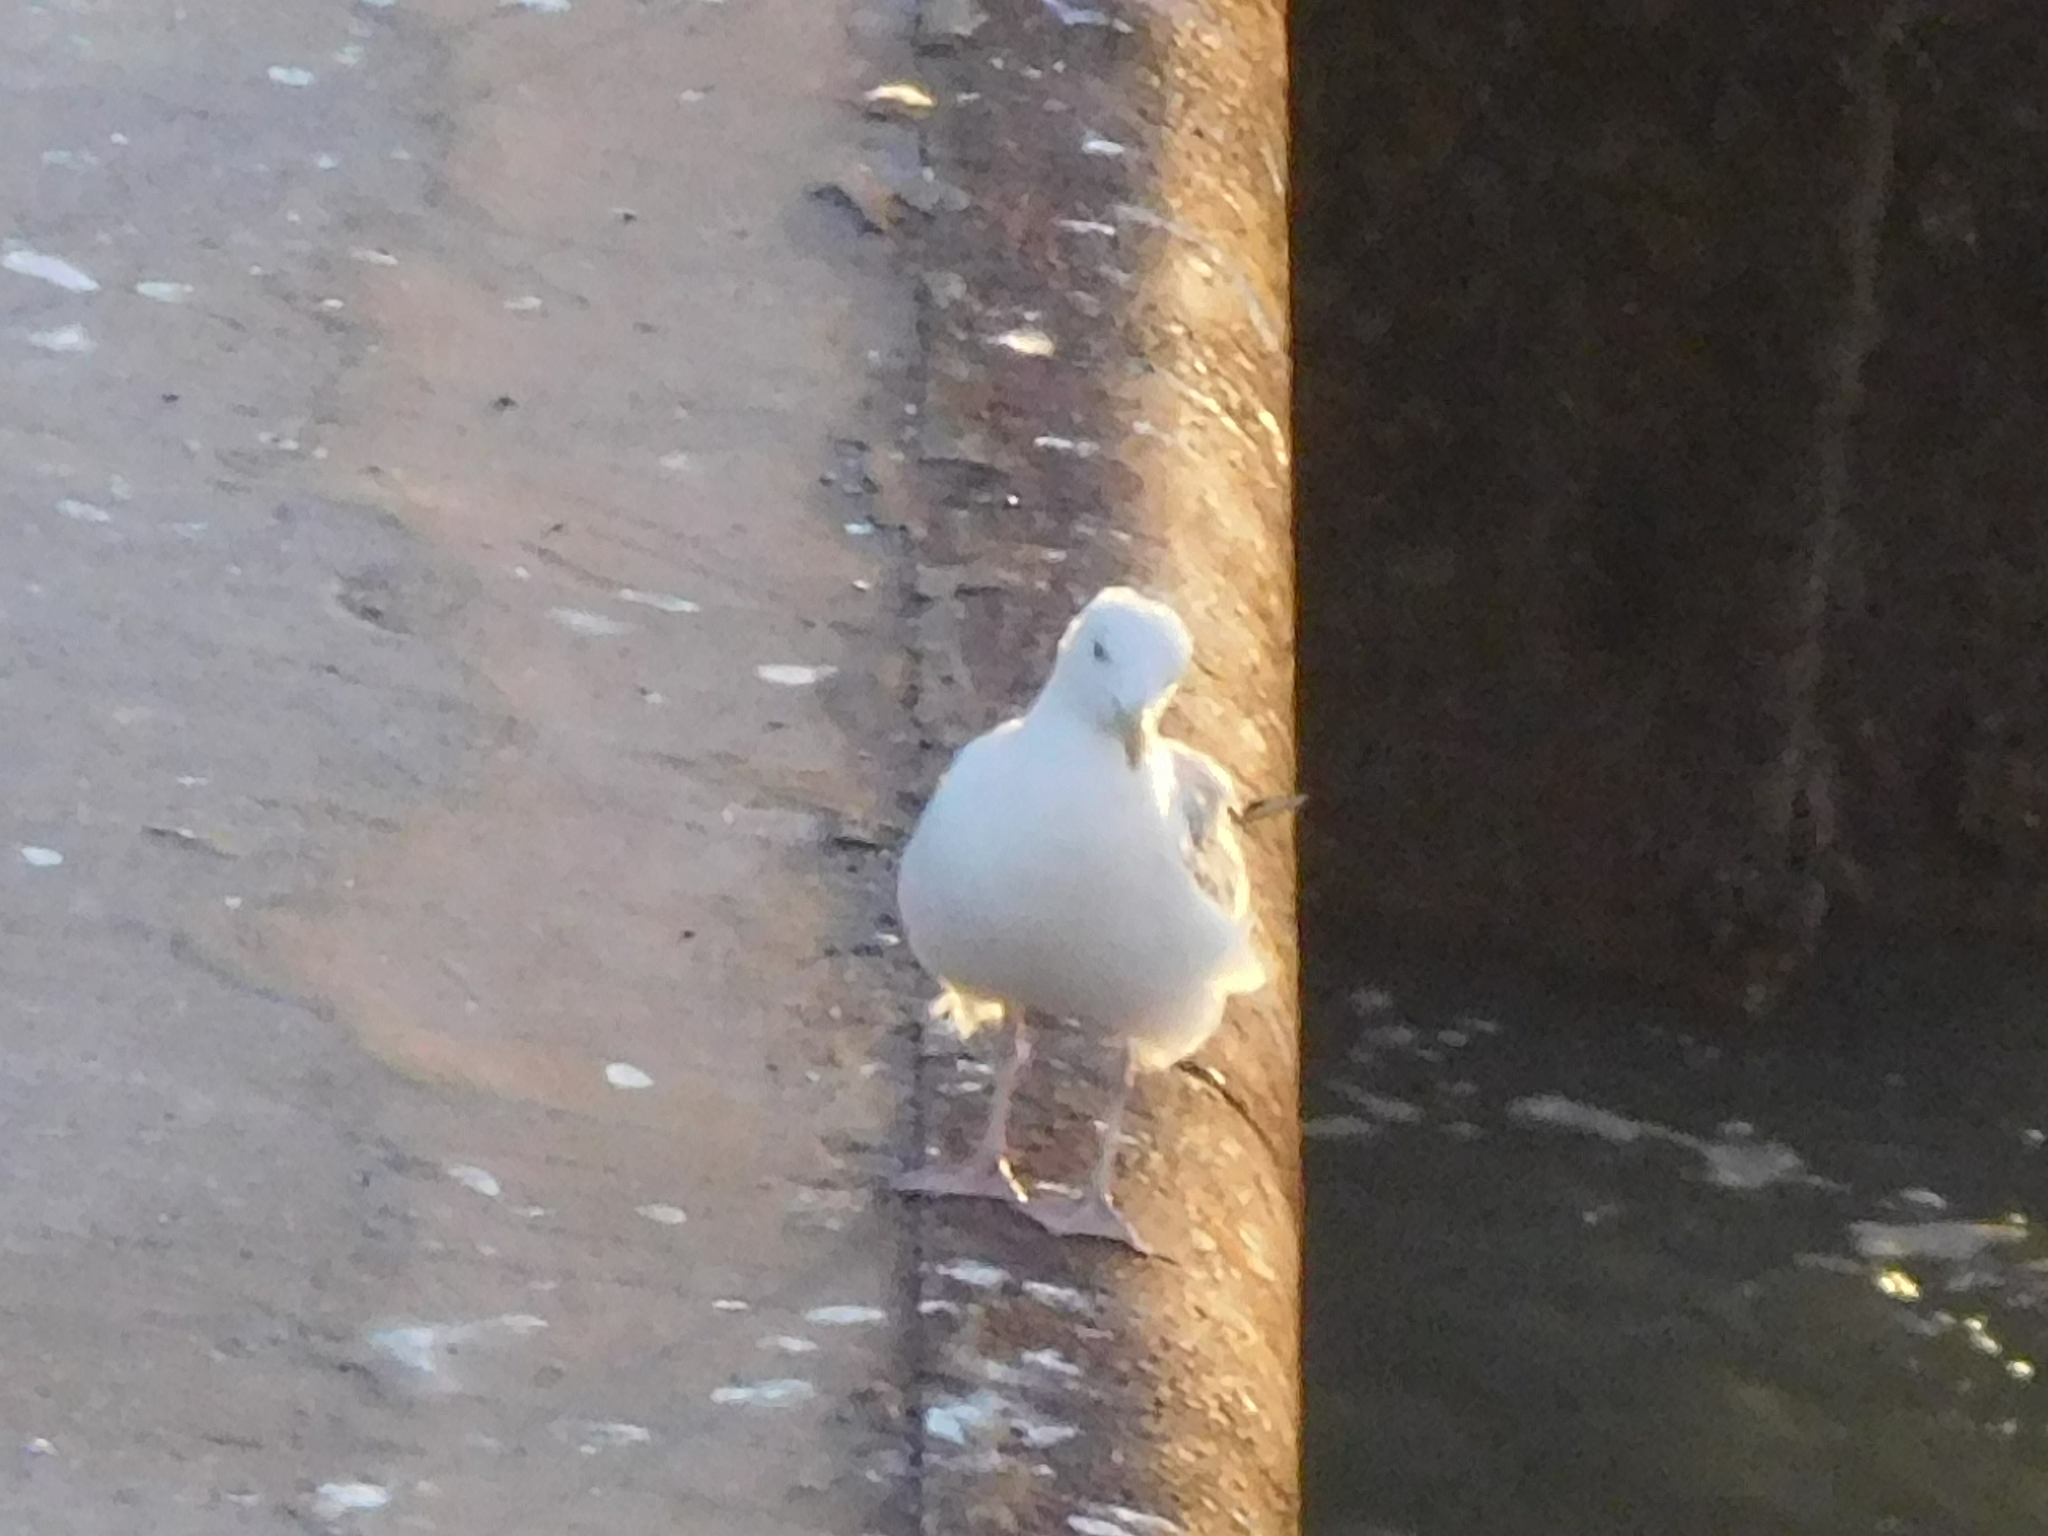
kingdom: Animalia
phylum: Chordata
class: Aves
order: Charadriiformes
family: Laridae
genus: Larus
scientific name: Larus argentatus
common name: Herring gull
